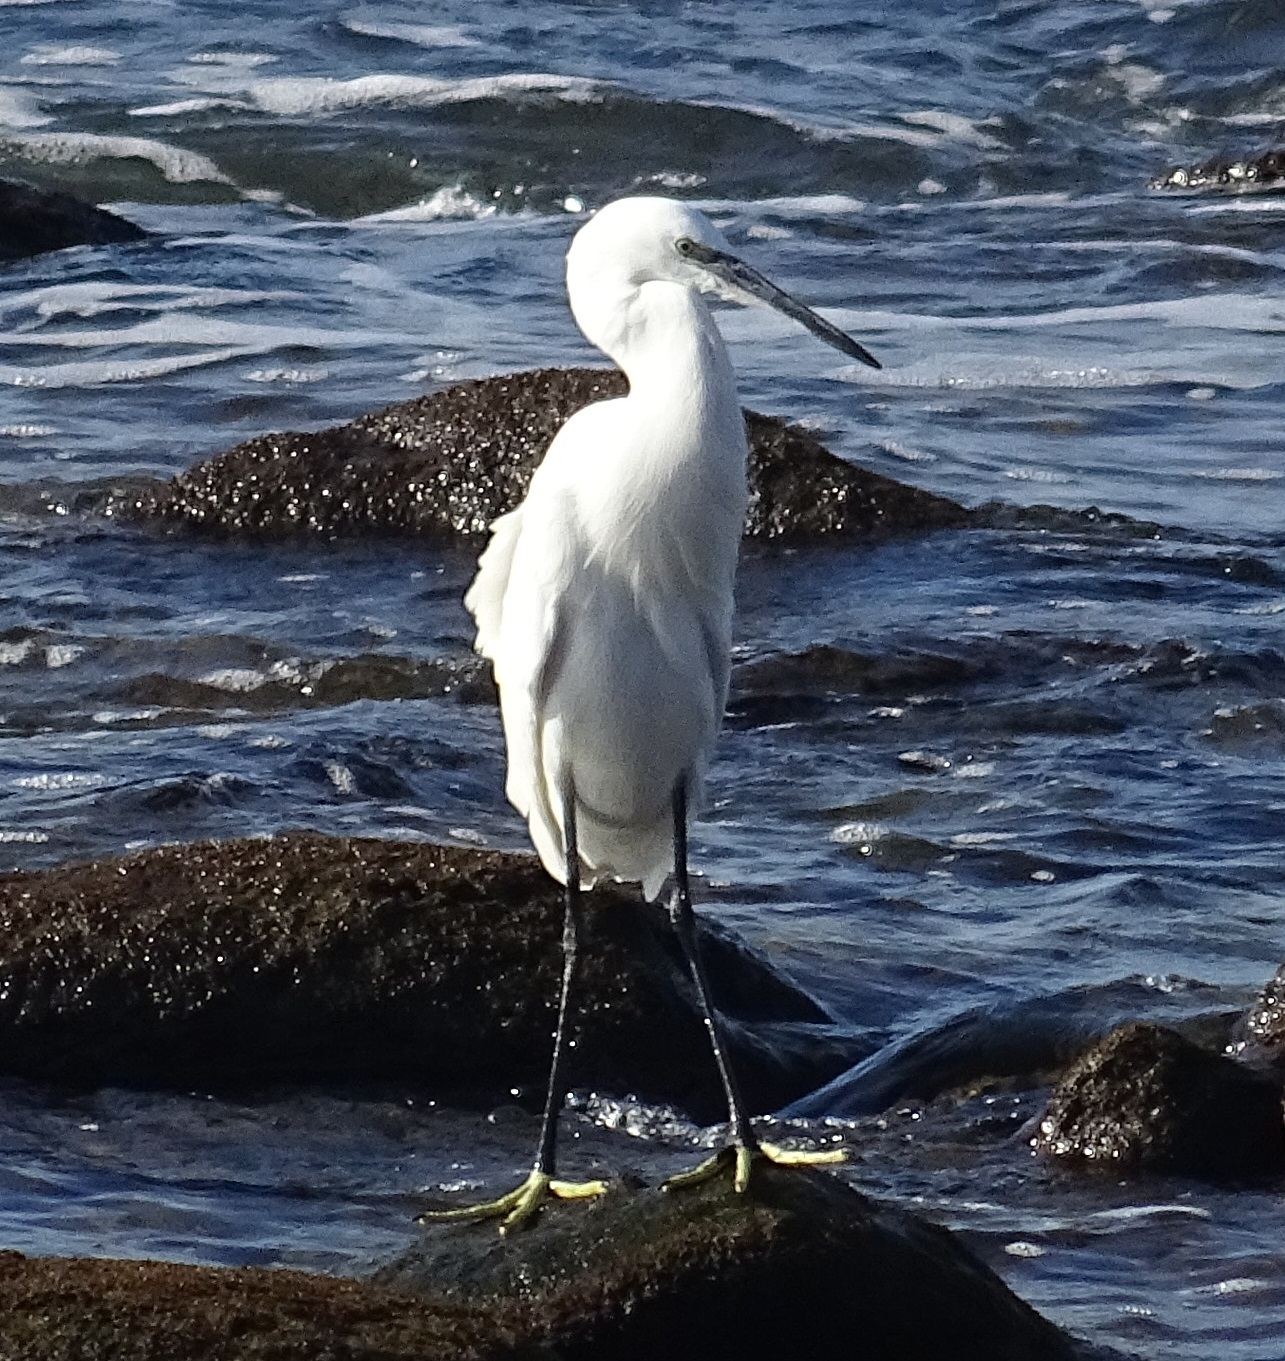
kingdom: Animalia
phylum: Chordata
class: Aves
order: Pelecaniformes
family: Ardeidae
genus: Egretta
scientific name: Egretta garzetta
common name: Little egret
